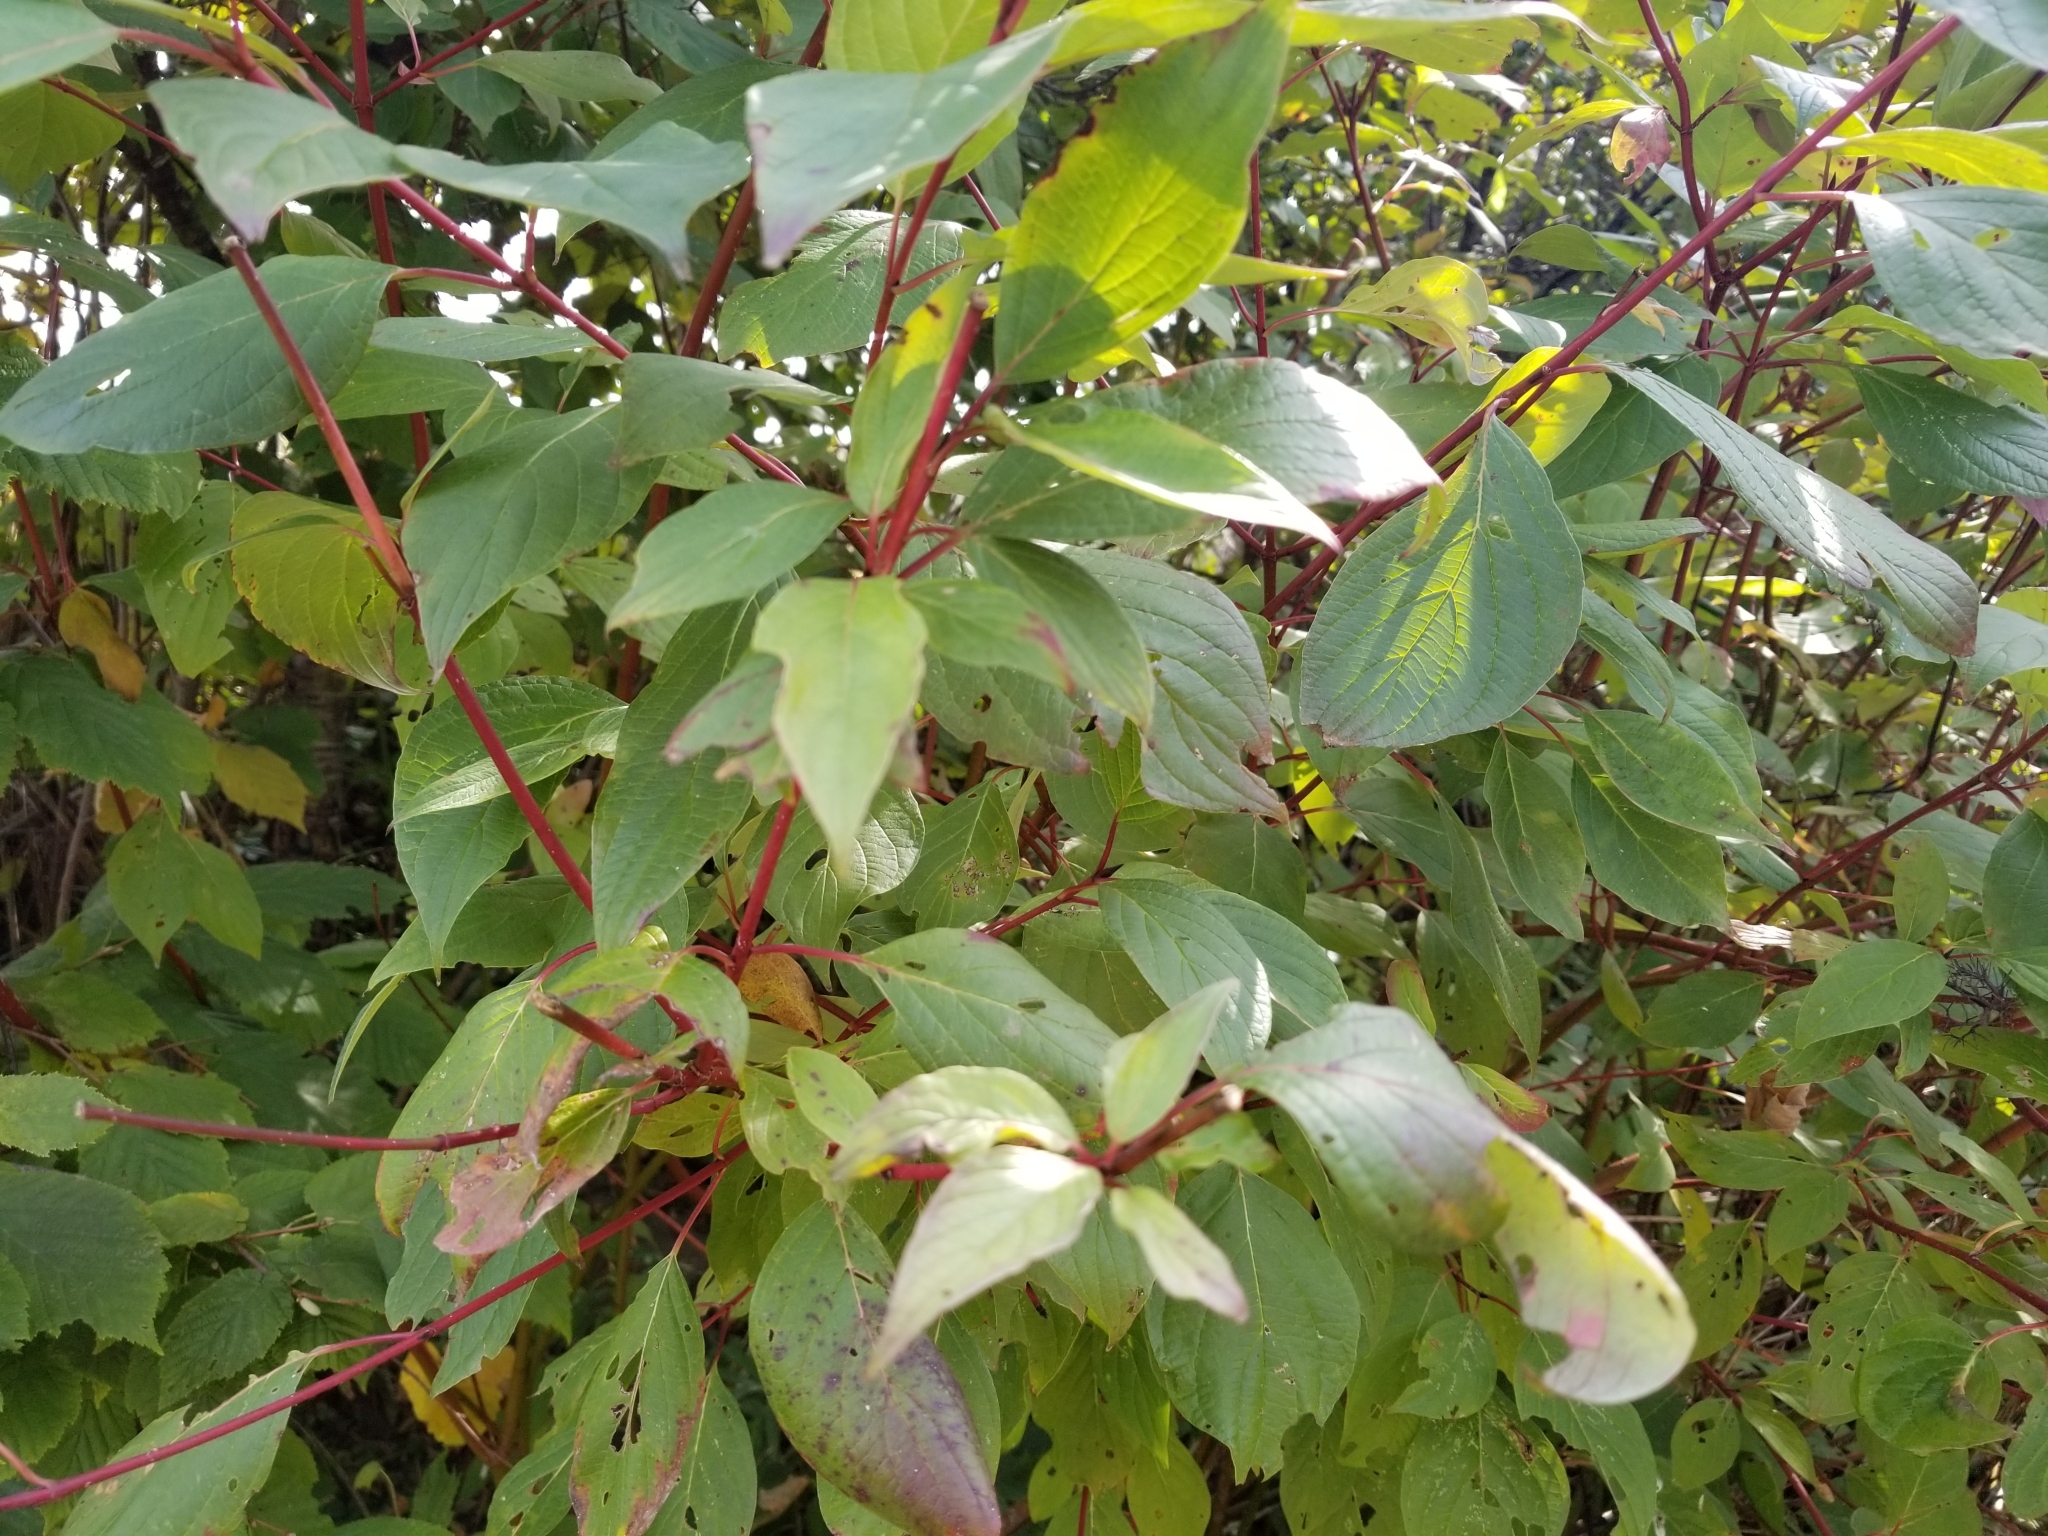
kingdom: Plantae
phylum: Tracheophyta
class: Magnoliopsida
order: Cornales
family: Cornaceae
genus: Cornus
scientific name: Cornus sericea
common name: Red-osier dogwood
